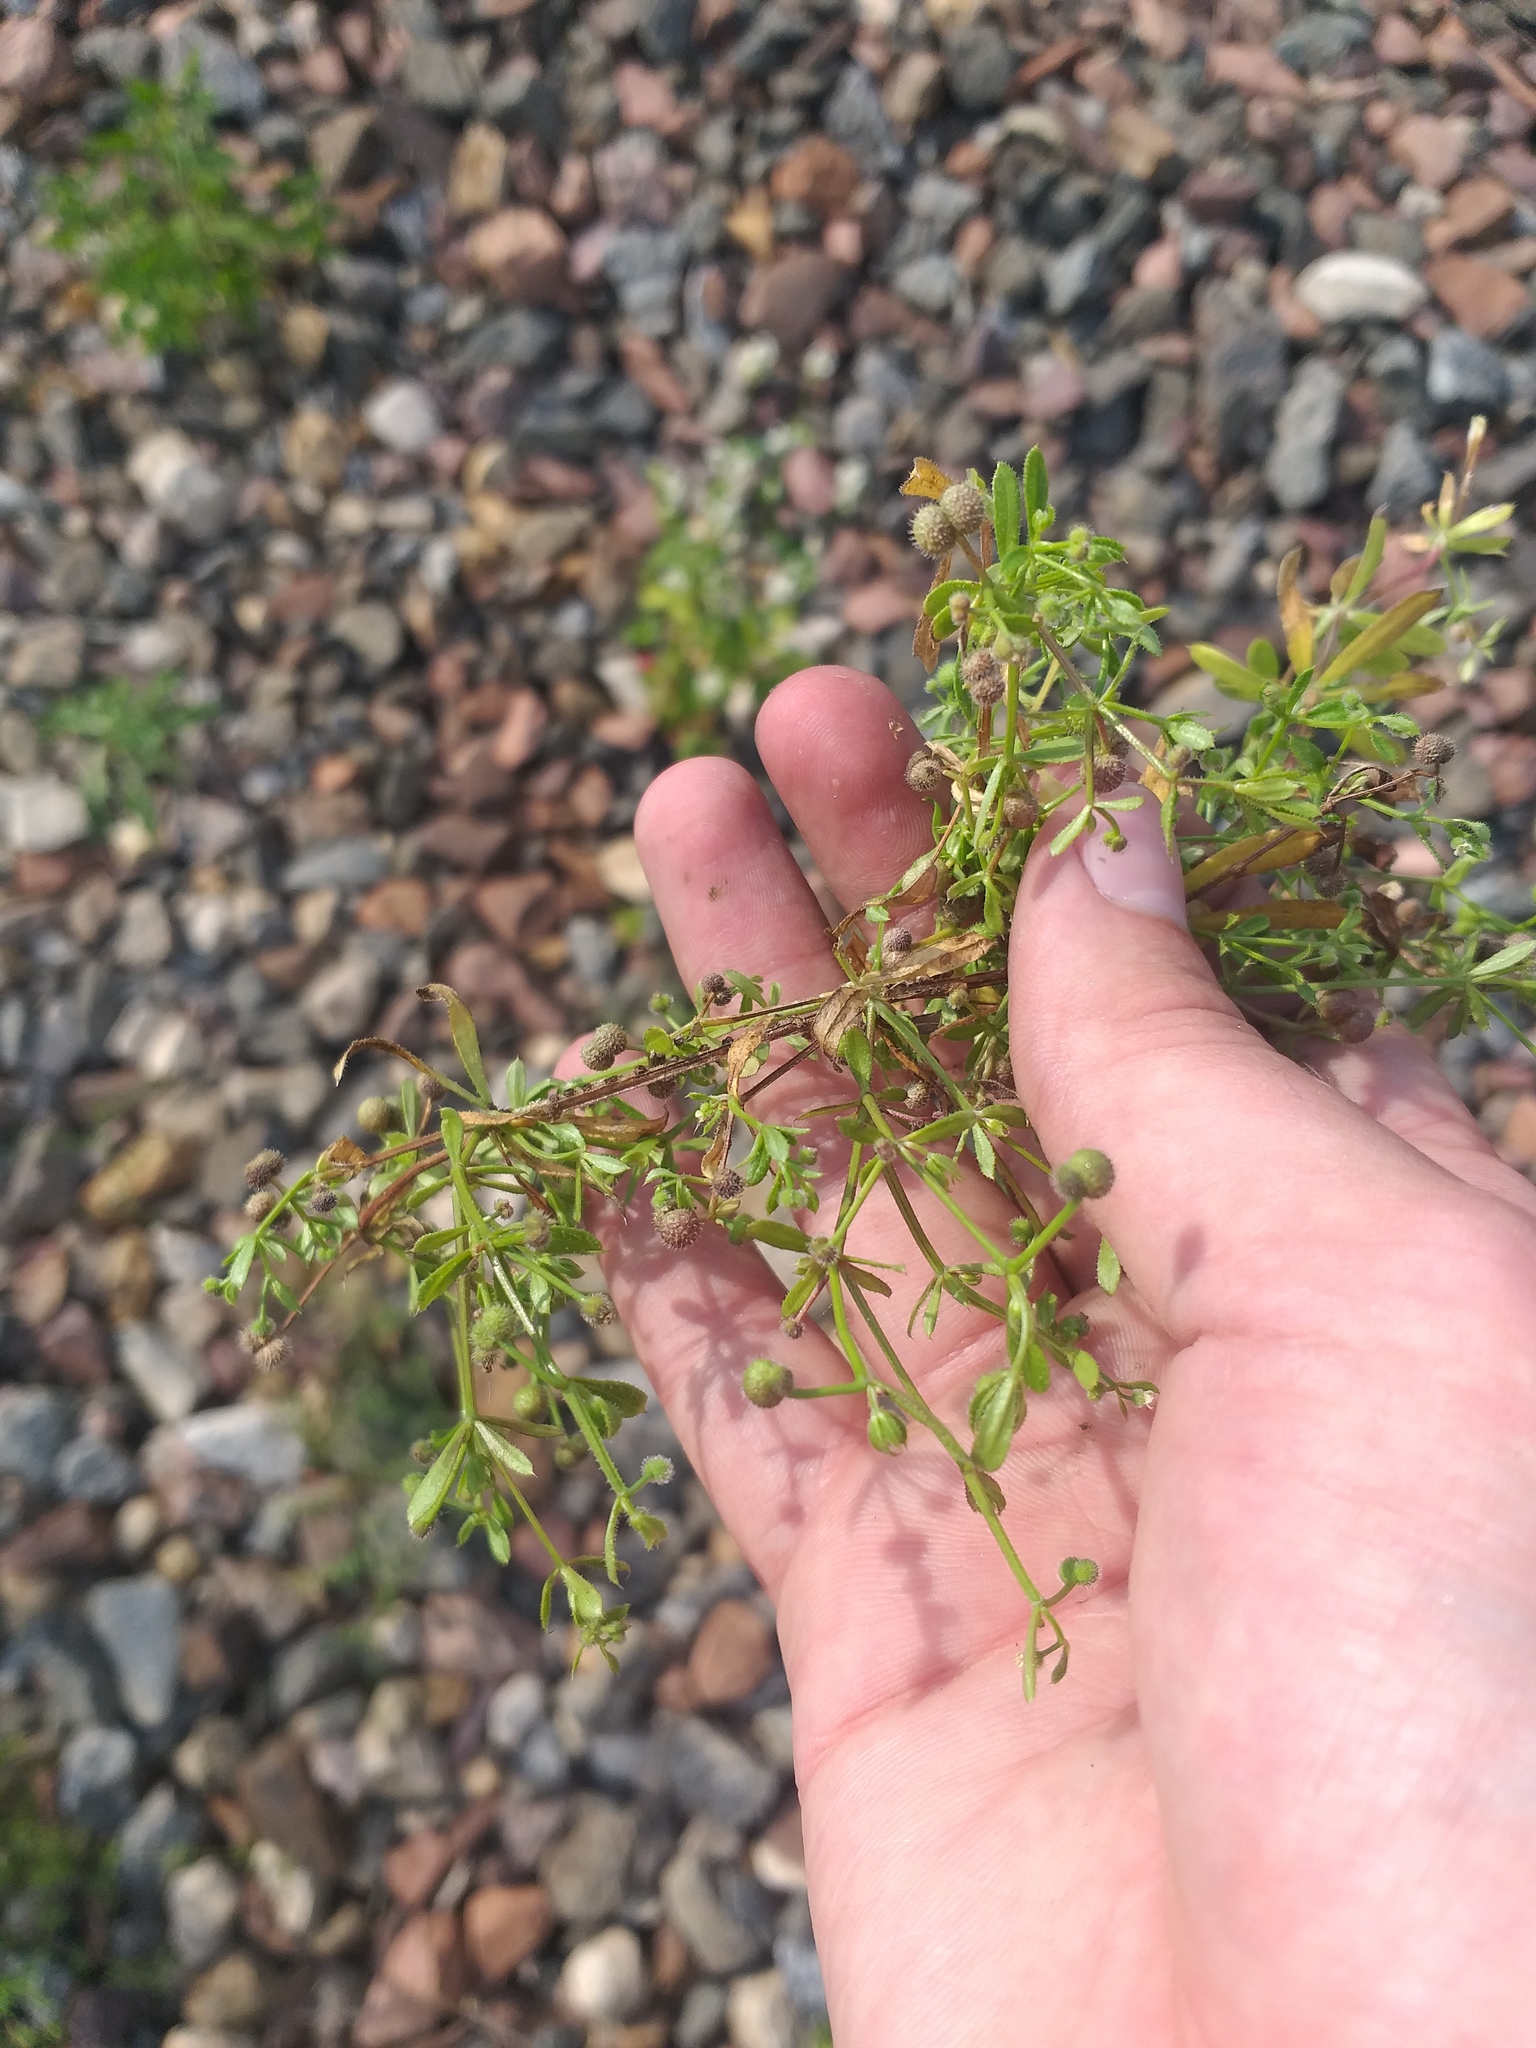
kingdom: Plantae
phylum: Tracheophyta
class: Magnoliopsida
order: Gentianales
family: Rubiaceae
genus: Galium
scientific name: Galium aparine
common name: Cleavers
